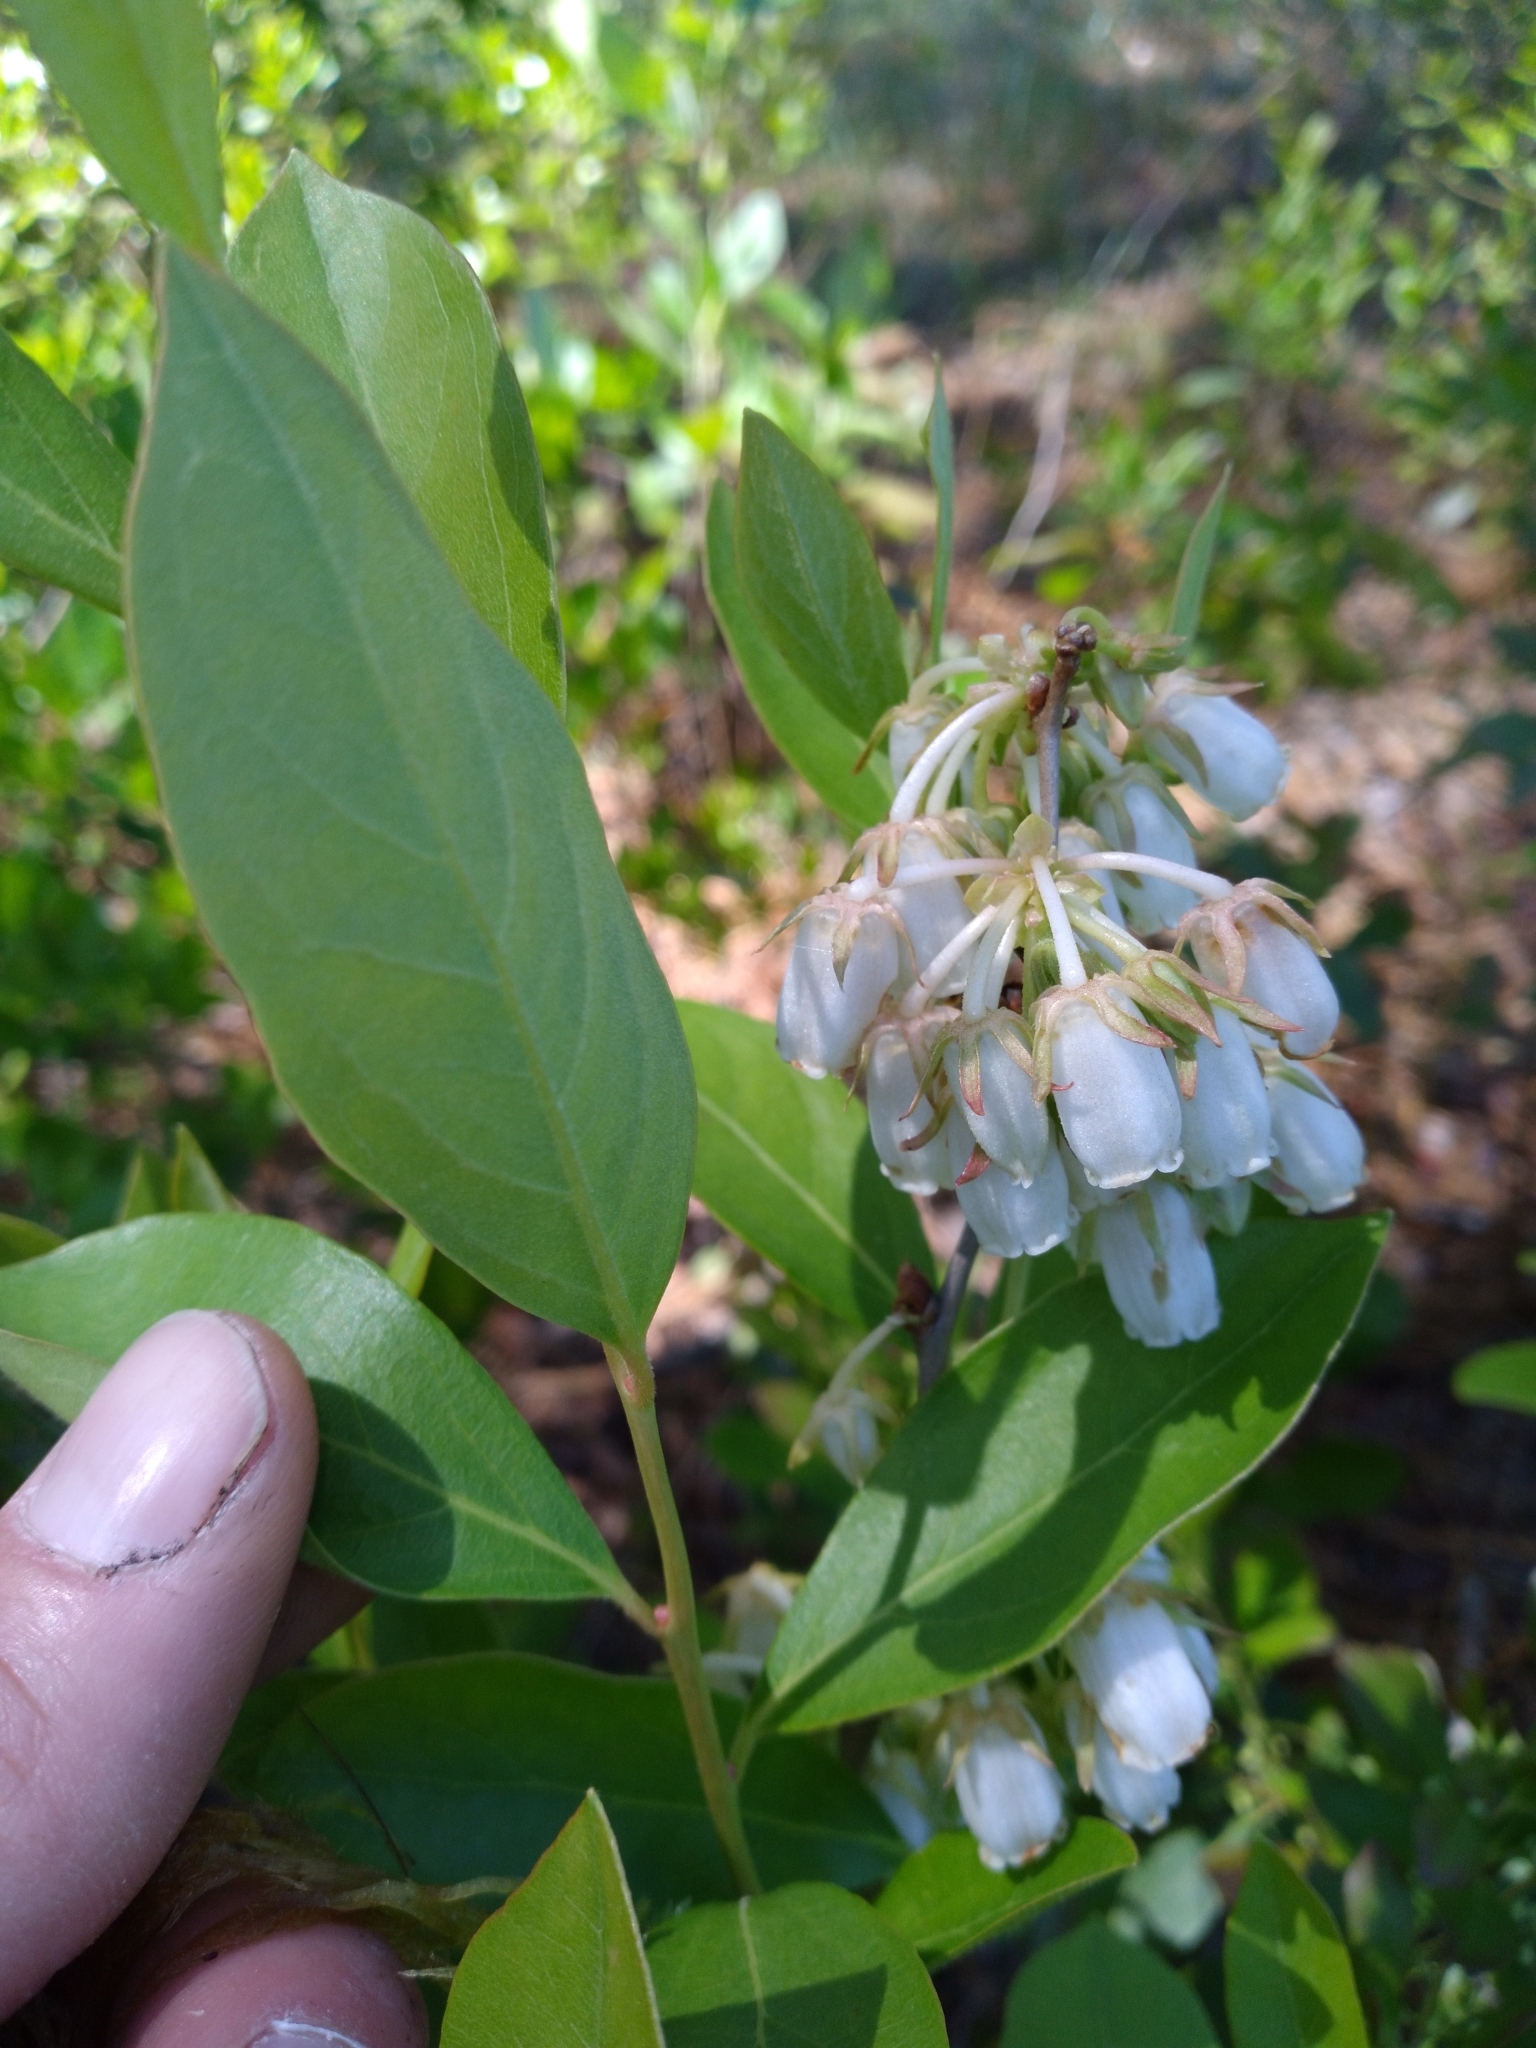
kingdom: Plantae
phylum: Tracheophyta
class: Magnoliopsida
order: Ericales
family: Ericaceae
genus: Lyonia
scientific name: Lyonia mariana
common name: Staggerbush
